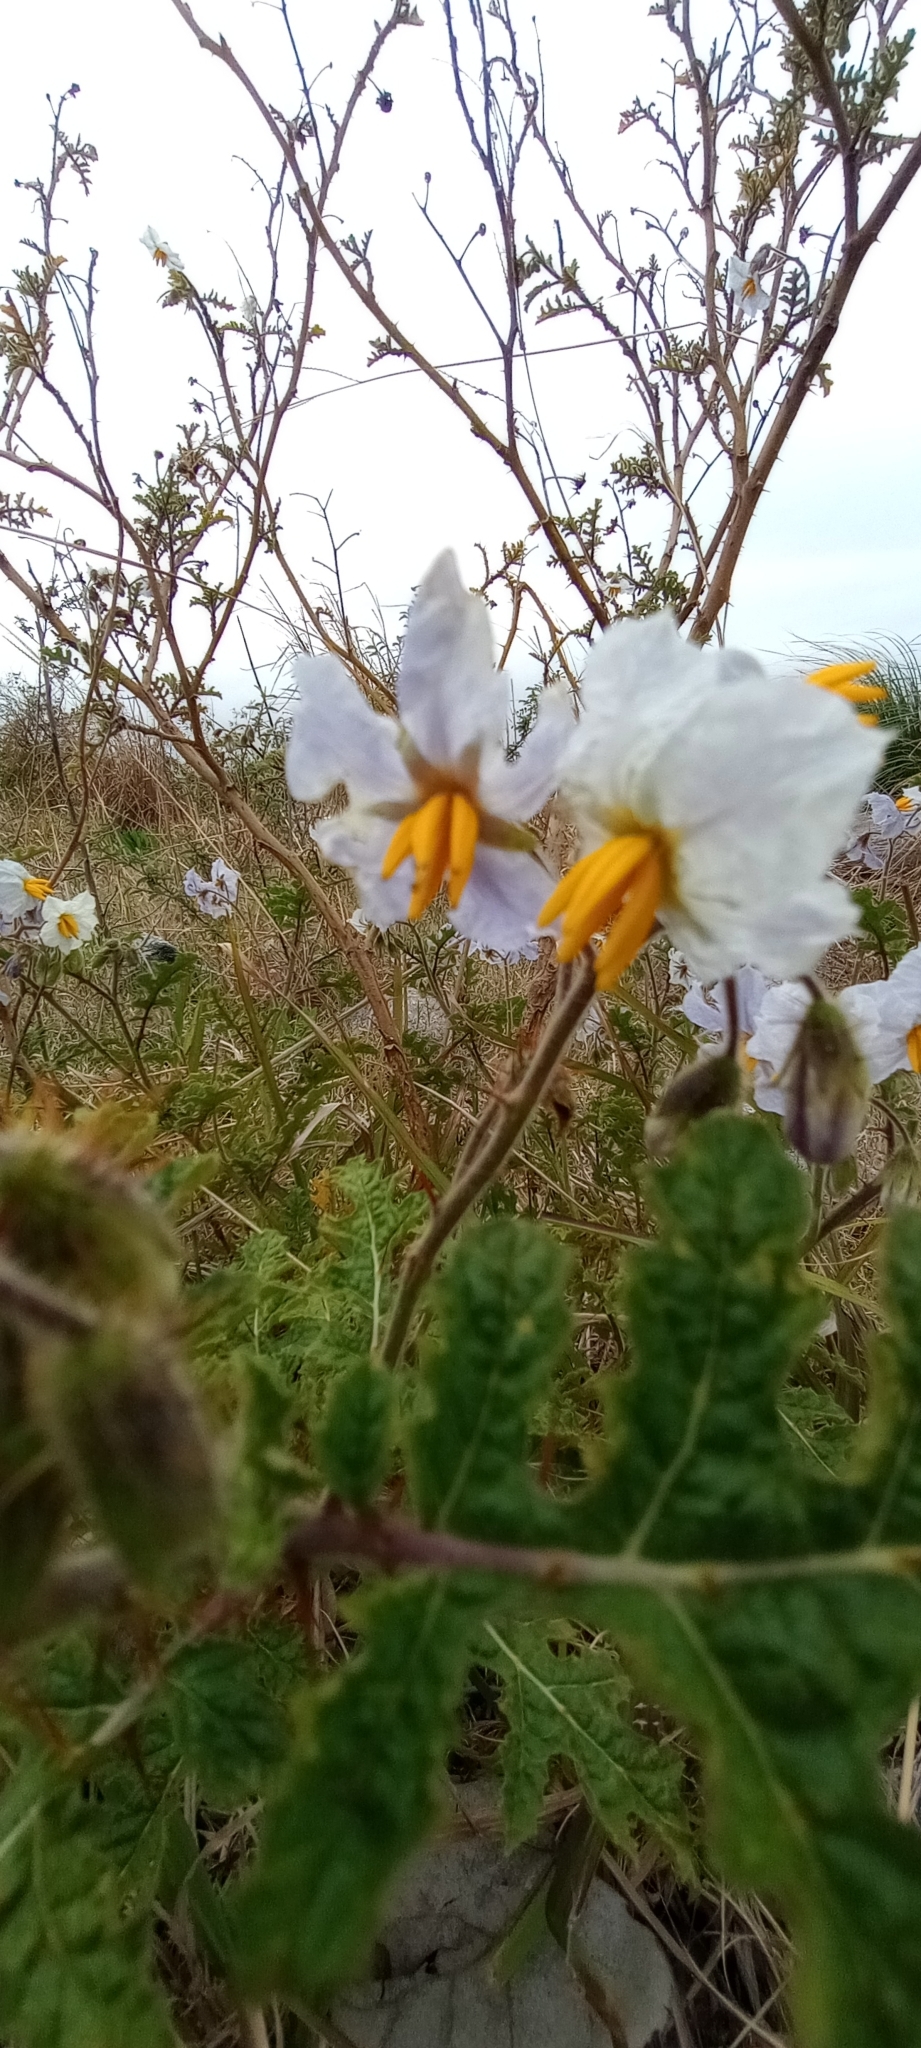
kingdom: Plantae
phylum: Tracheophyta
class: Magnoliopsida
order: Solanales
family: Solanaceae
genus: Solanum
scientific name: Solanum sisymbriifolium
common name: Red buffalo-bur
